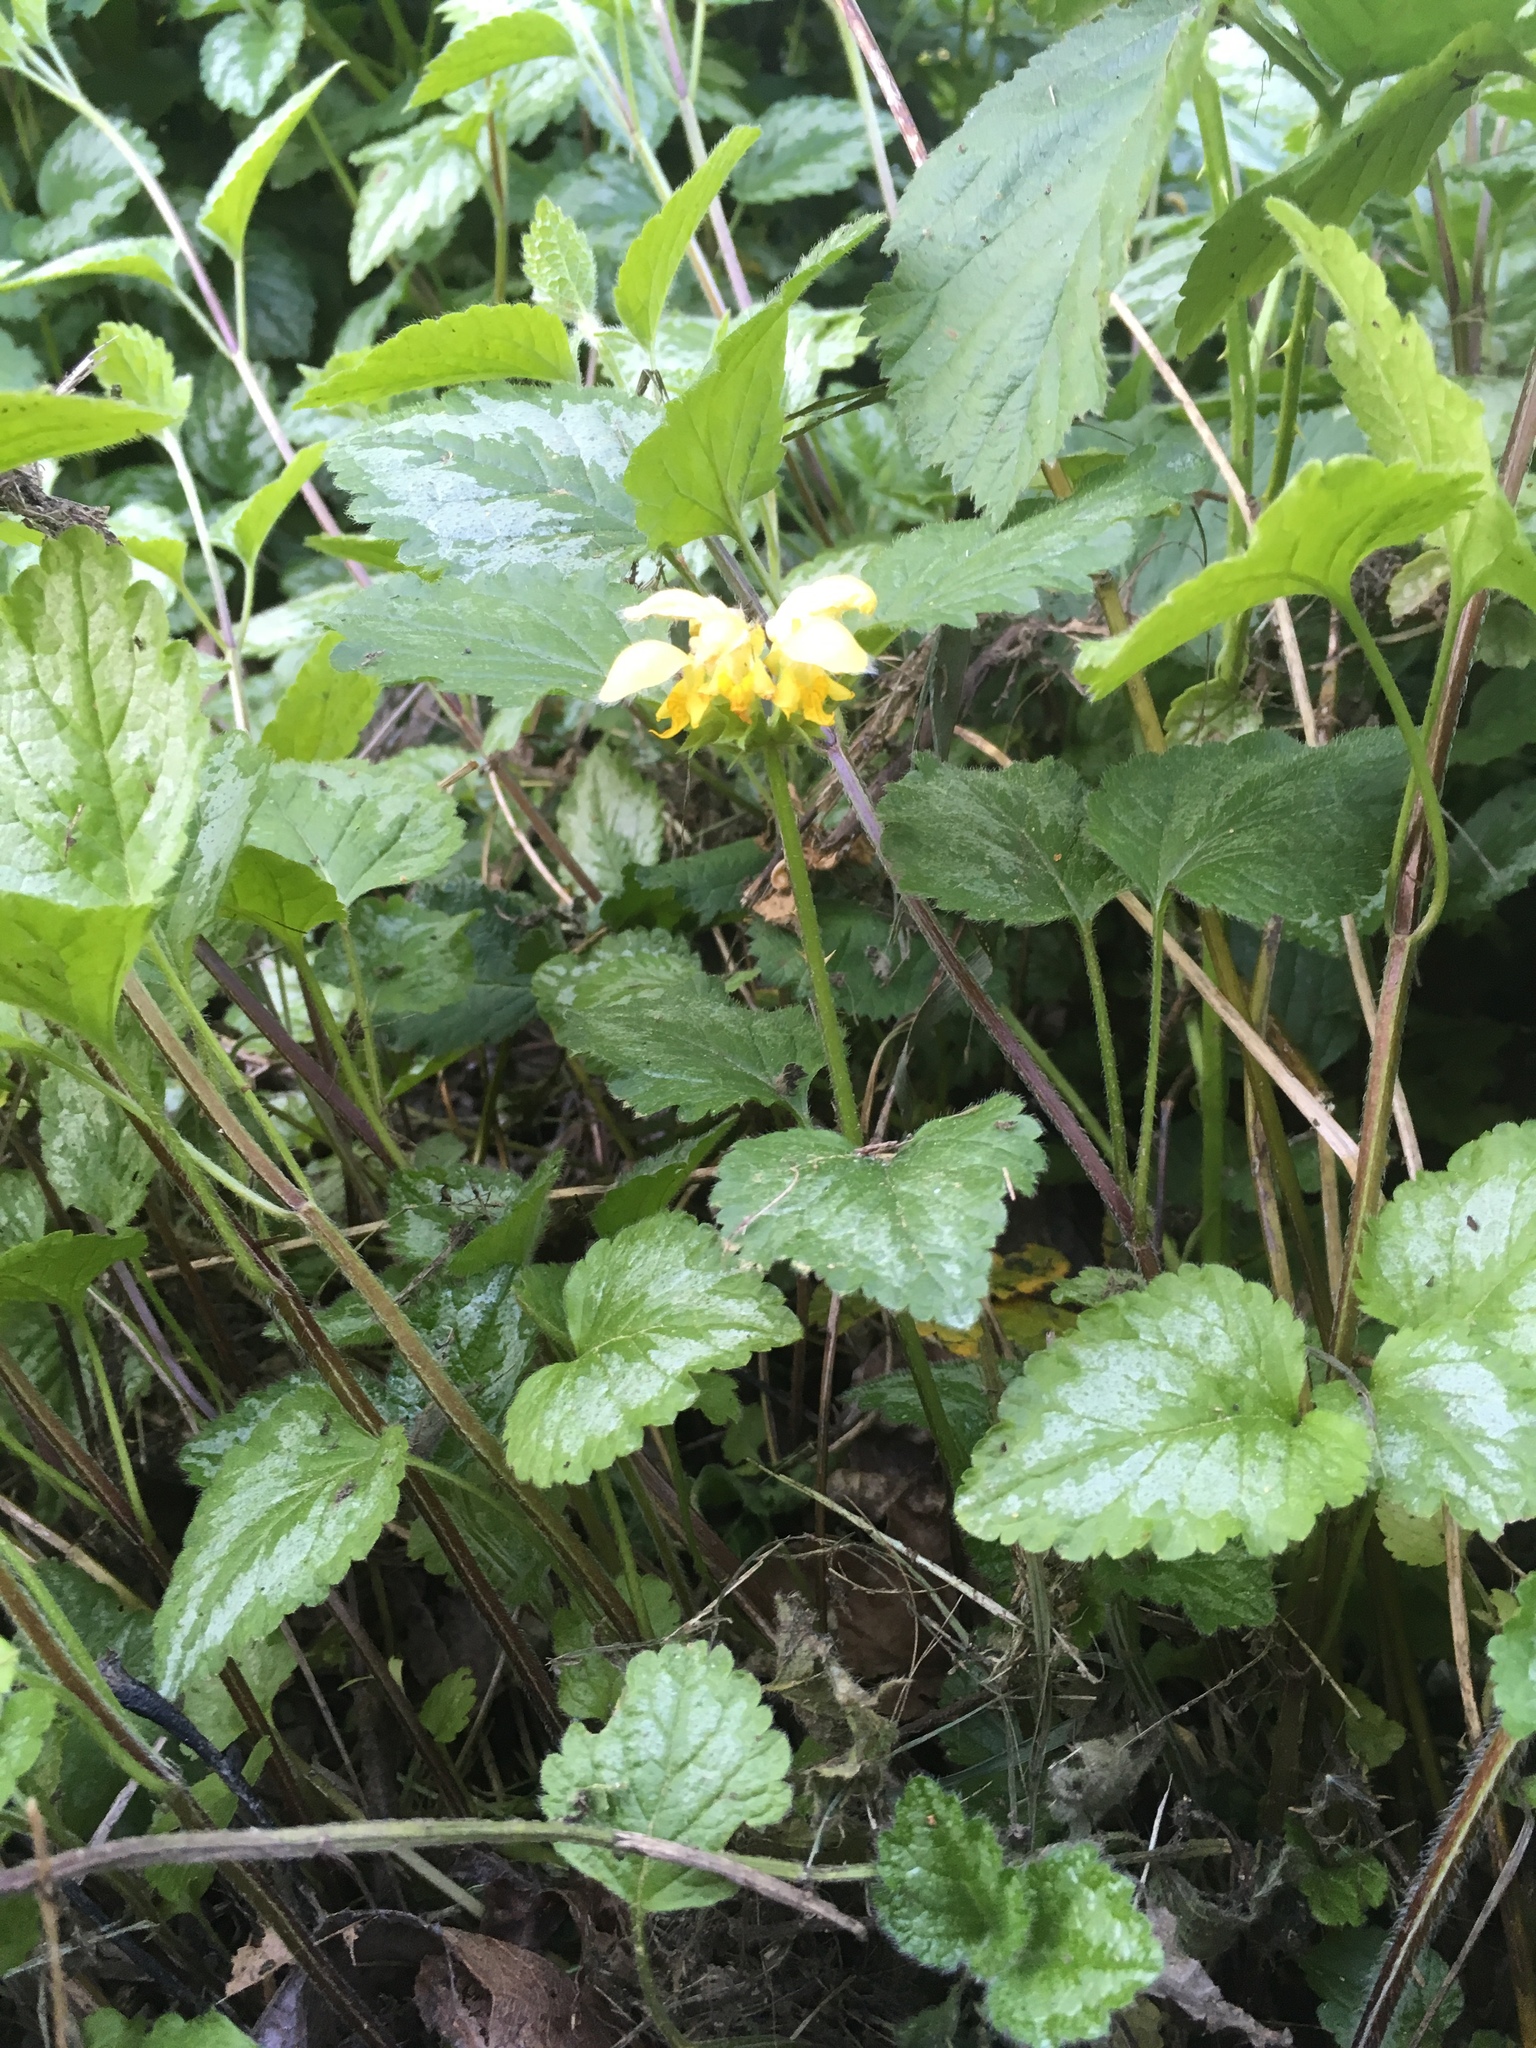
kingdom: Plantae
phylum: Tracheophyta
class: Magnoliopsida
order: Lamiales
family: Lamiaceae
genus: Lamium
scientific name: Lamium galeobdolon
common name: Yellow archangel
